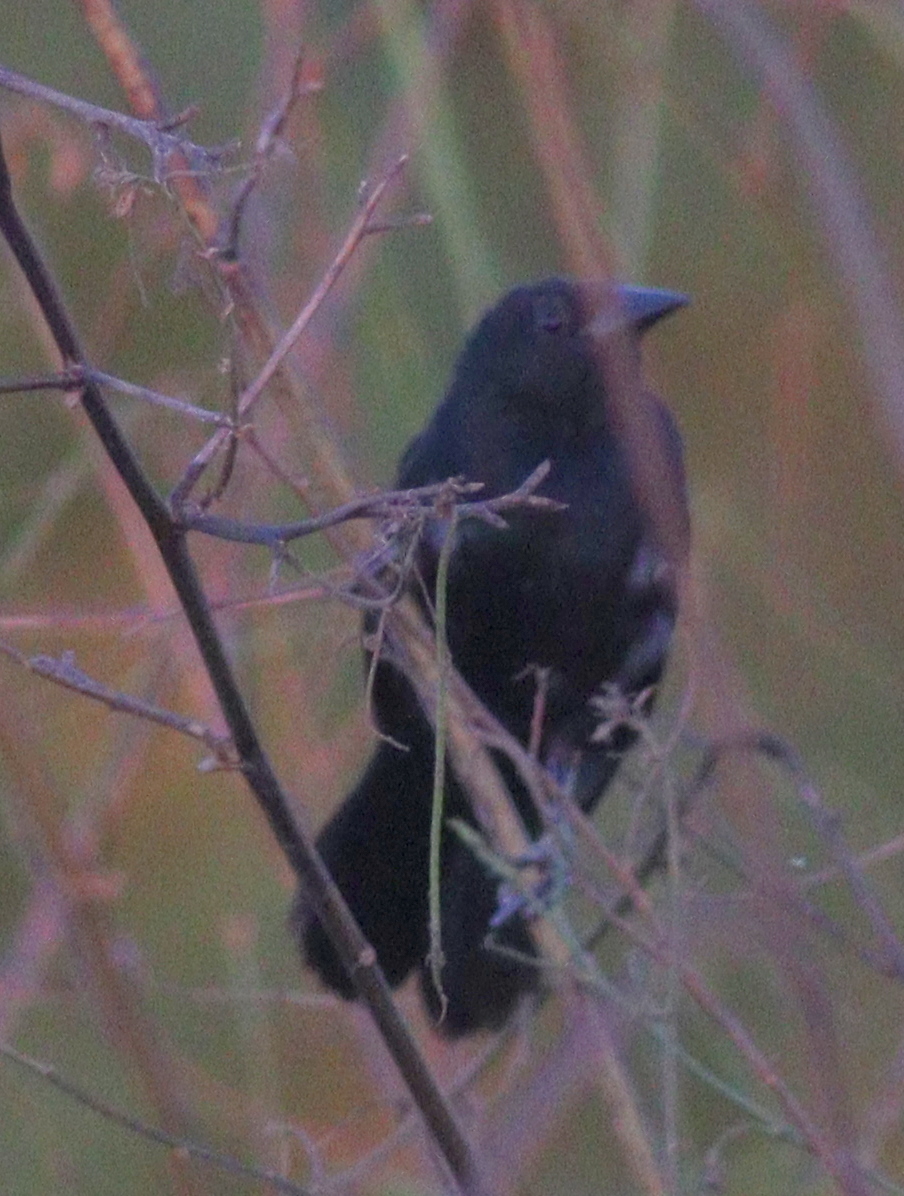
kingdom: Animalia
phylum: Chordata
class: Aves
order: Passeriformes
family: Icteridae
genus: Agelasticus
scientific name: Agelasticus cyanopus
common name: Unicolored blackbird
